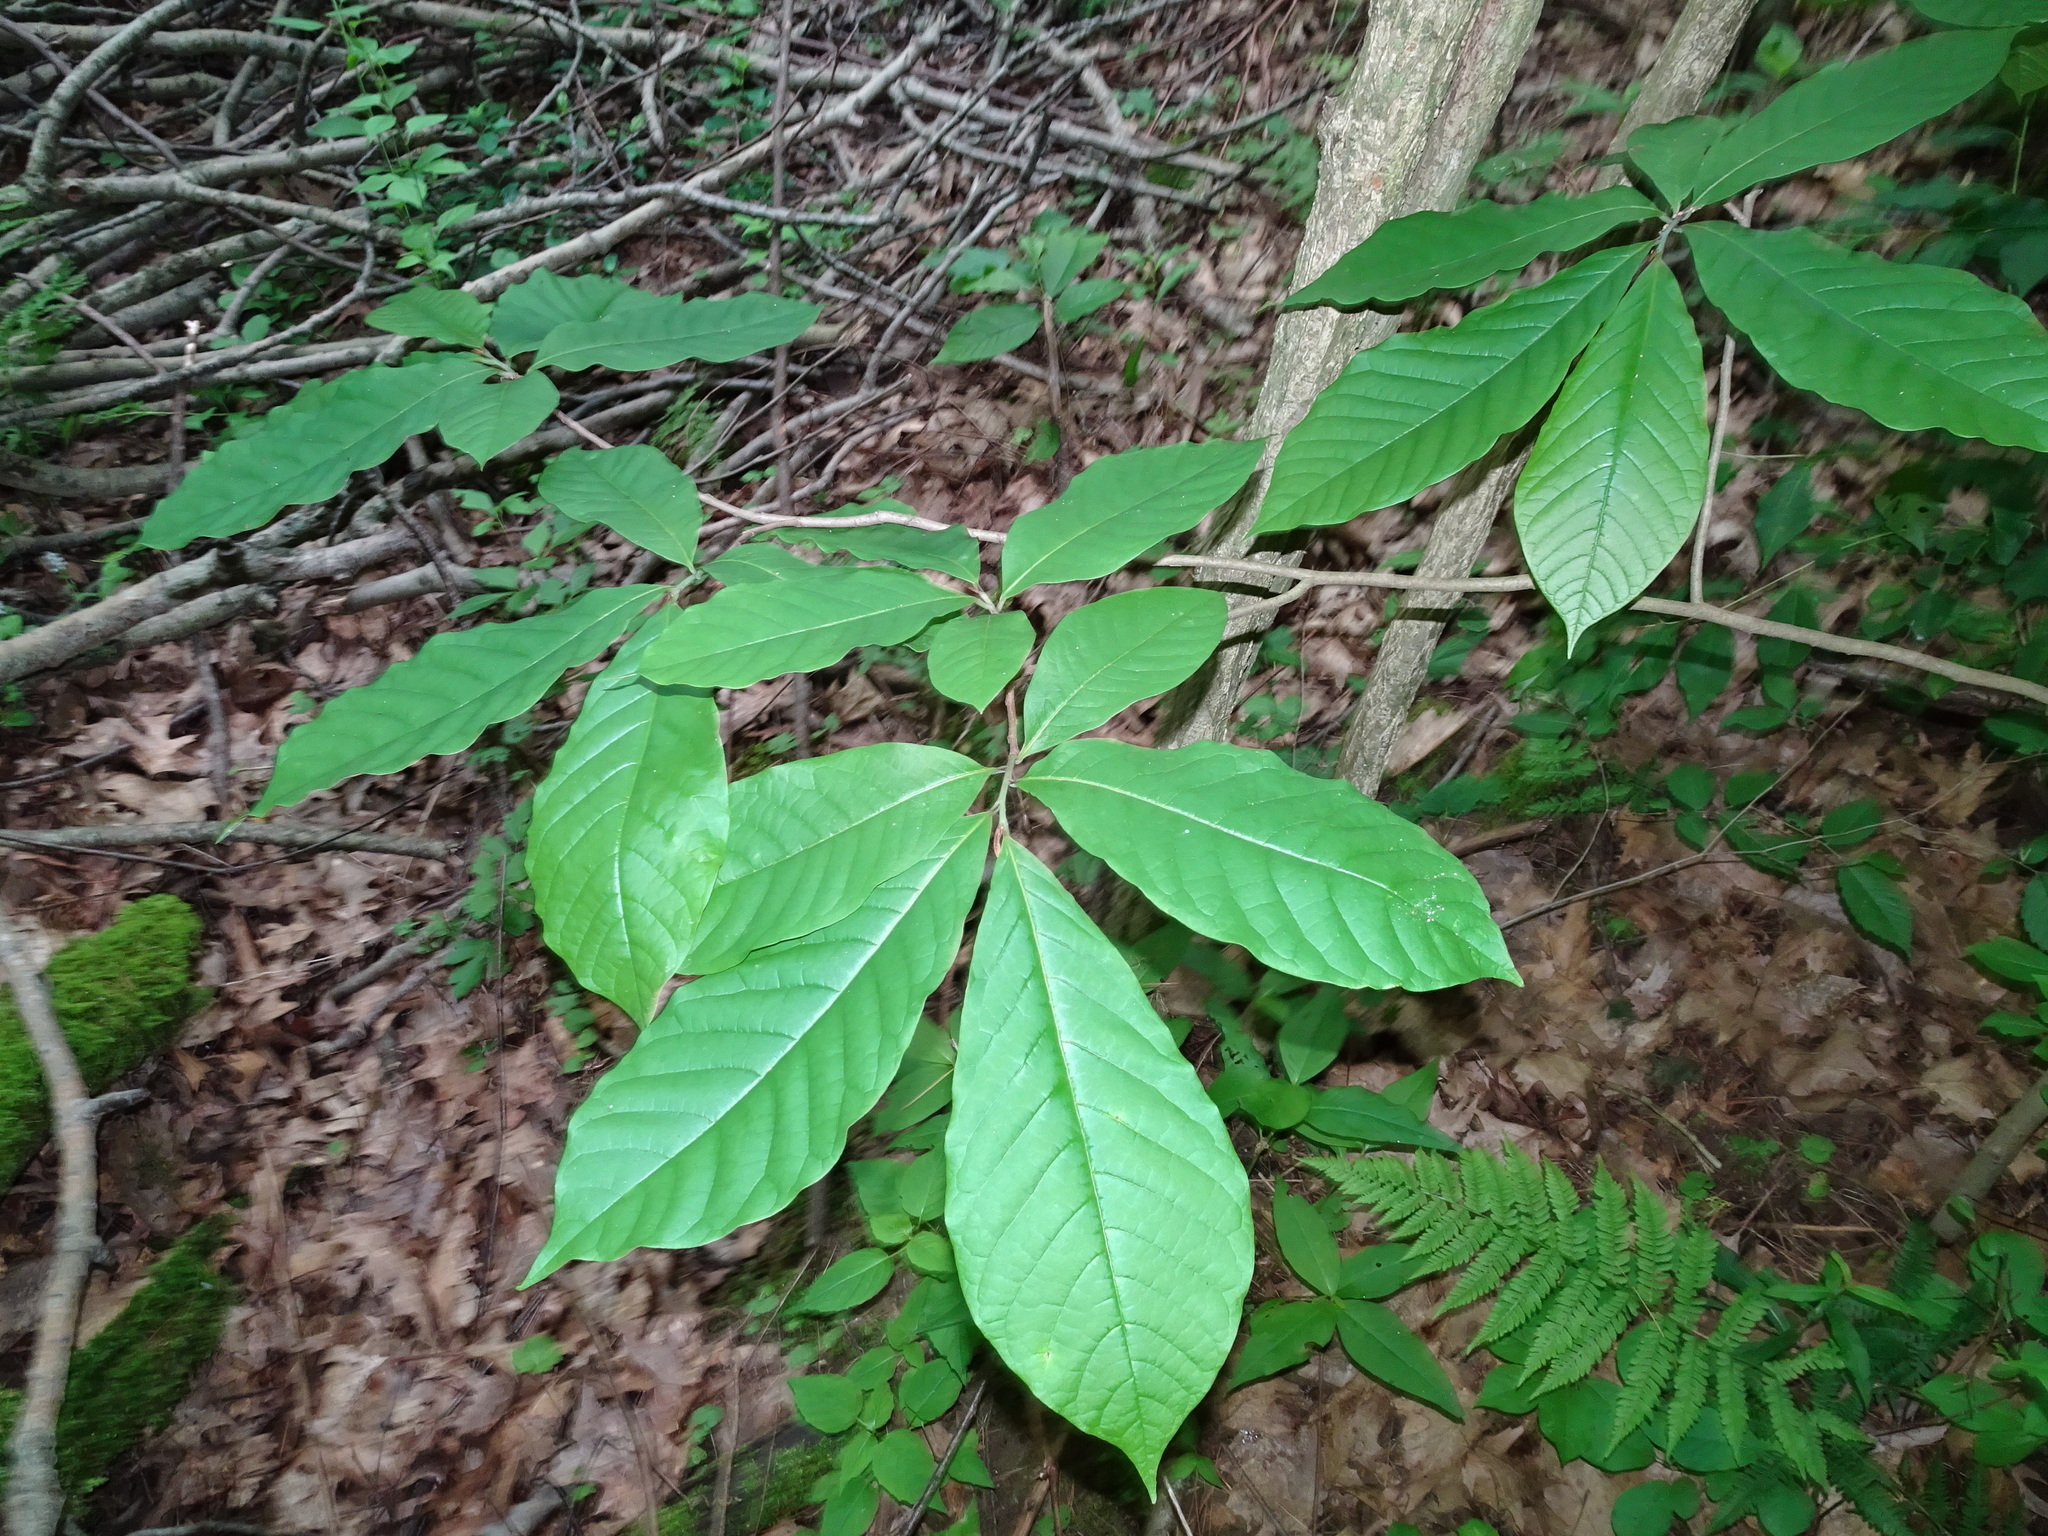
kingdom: Plantae
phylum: Tracheophyta
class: Magnoliopsida
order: Magnoliales
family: Annonaceae
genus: Asimina
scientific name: Asimina triloba
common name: Dog-banana
